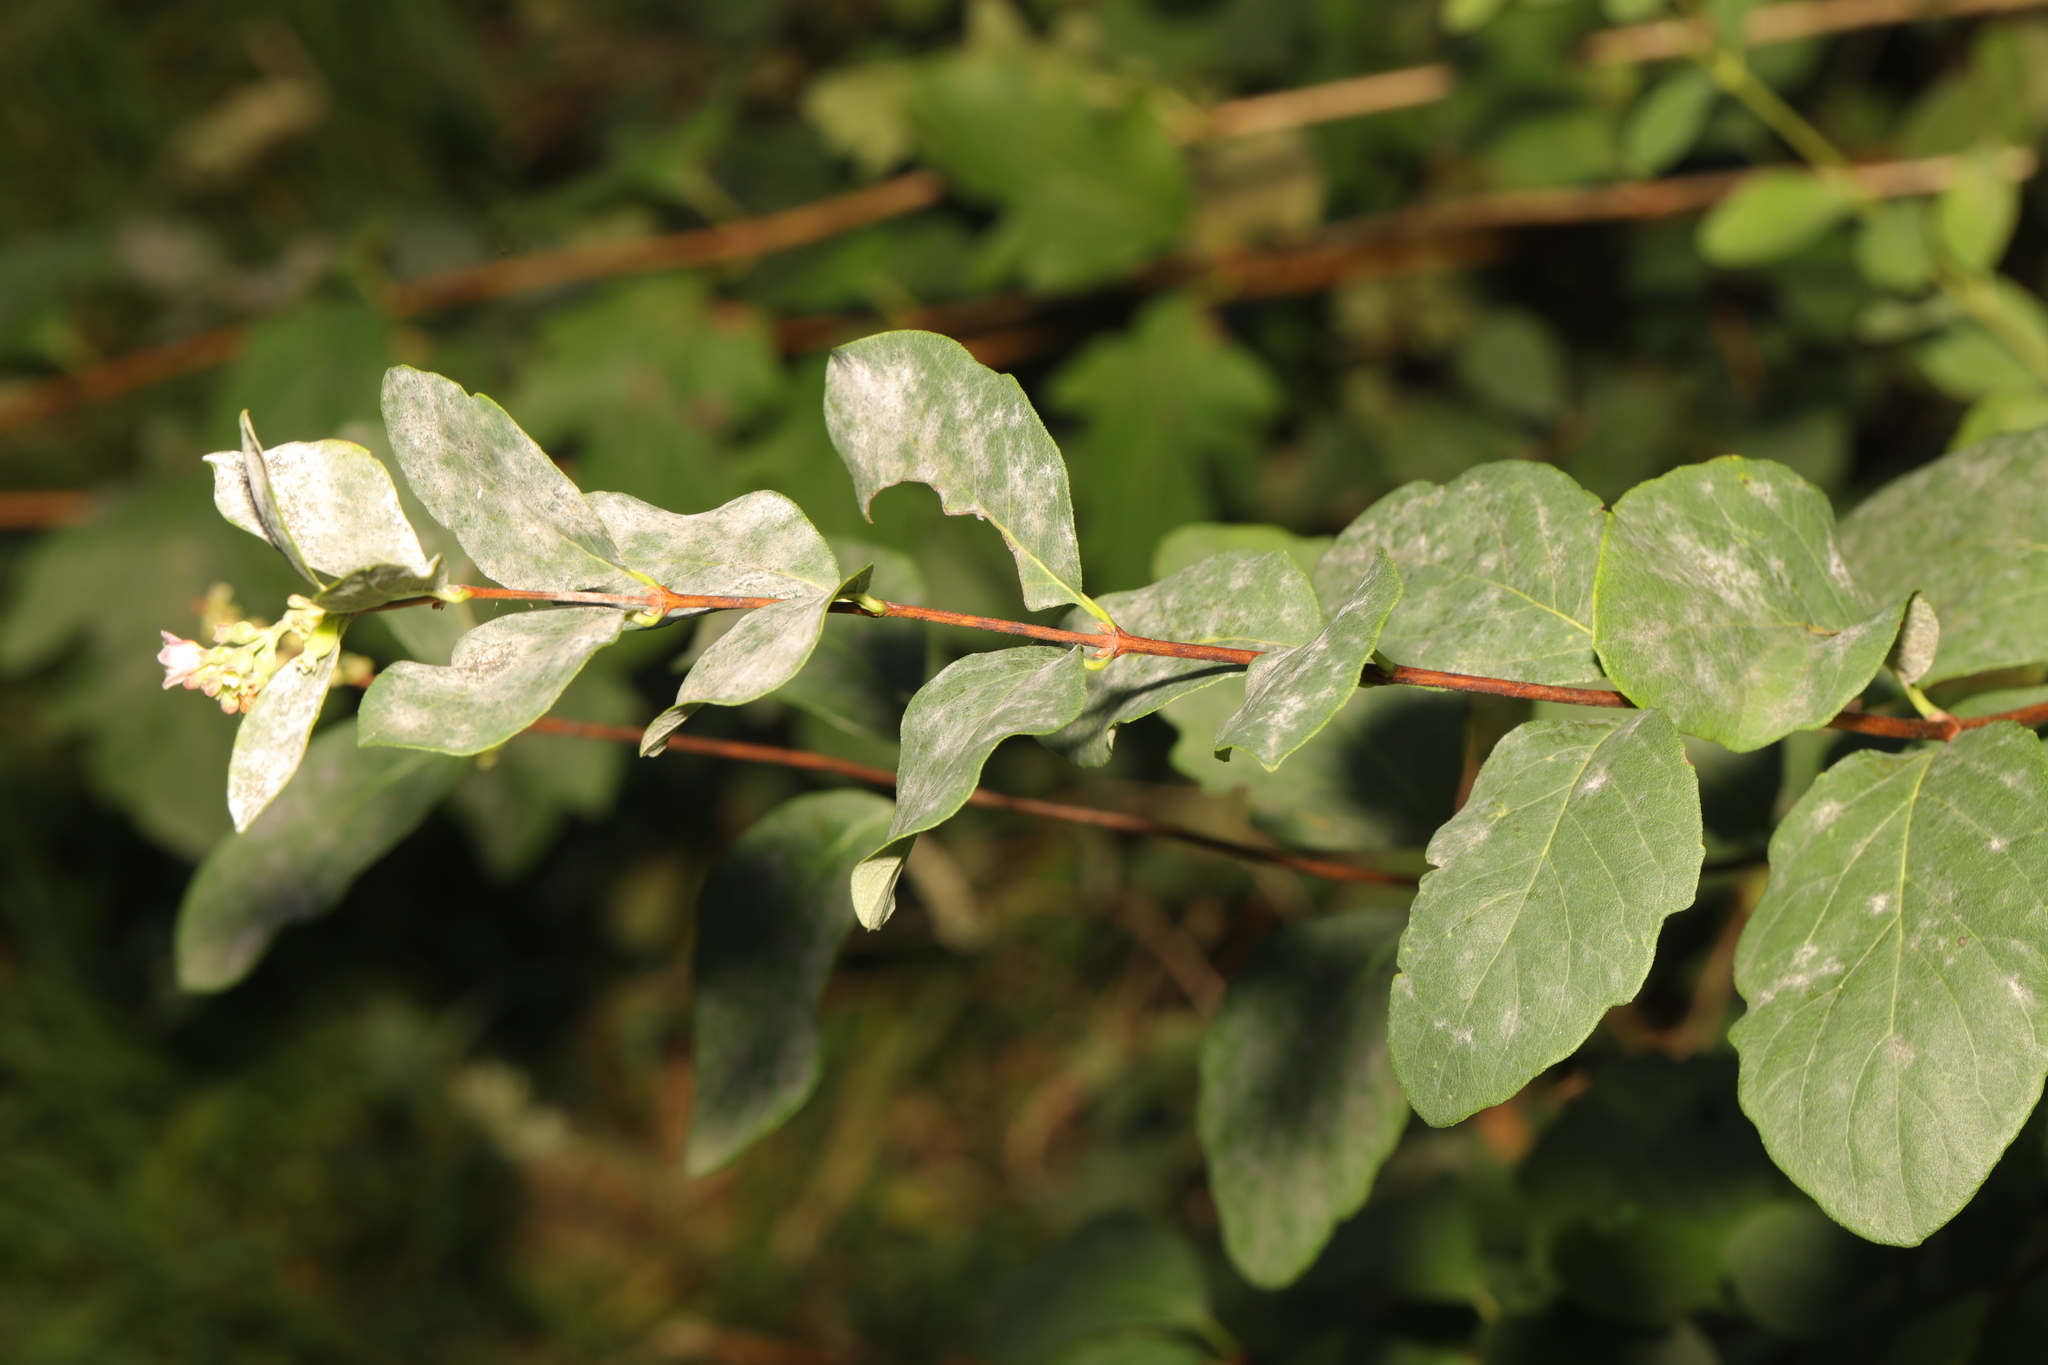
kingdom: Plantae
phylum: Tracheophyta
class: Magnoliopsida
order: Dipsacales
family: Caprifoliaceae
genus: Symphoricarpos
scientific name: Symphoricarpos albus
